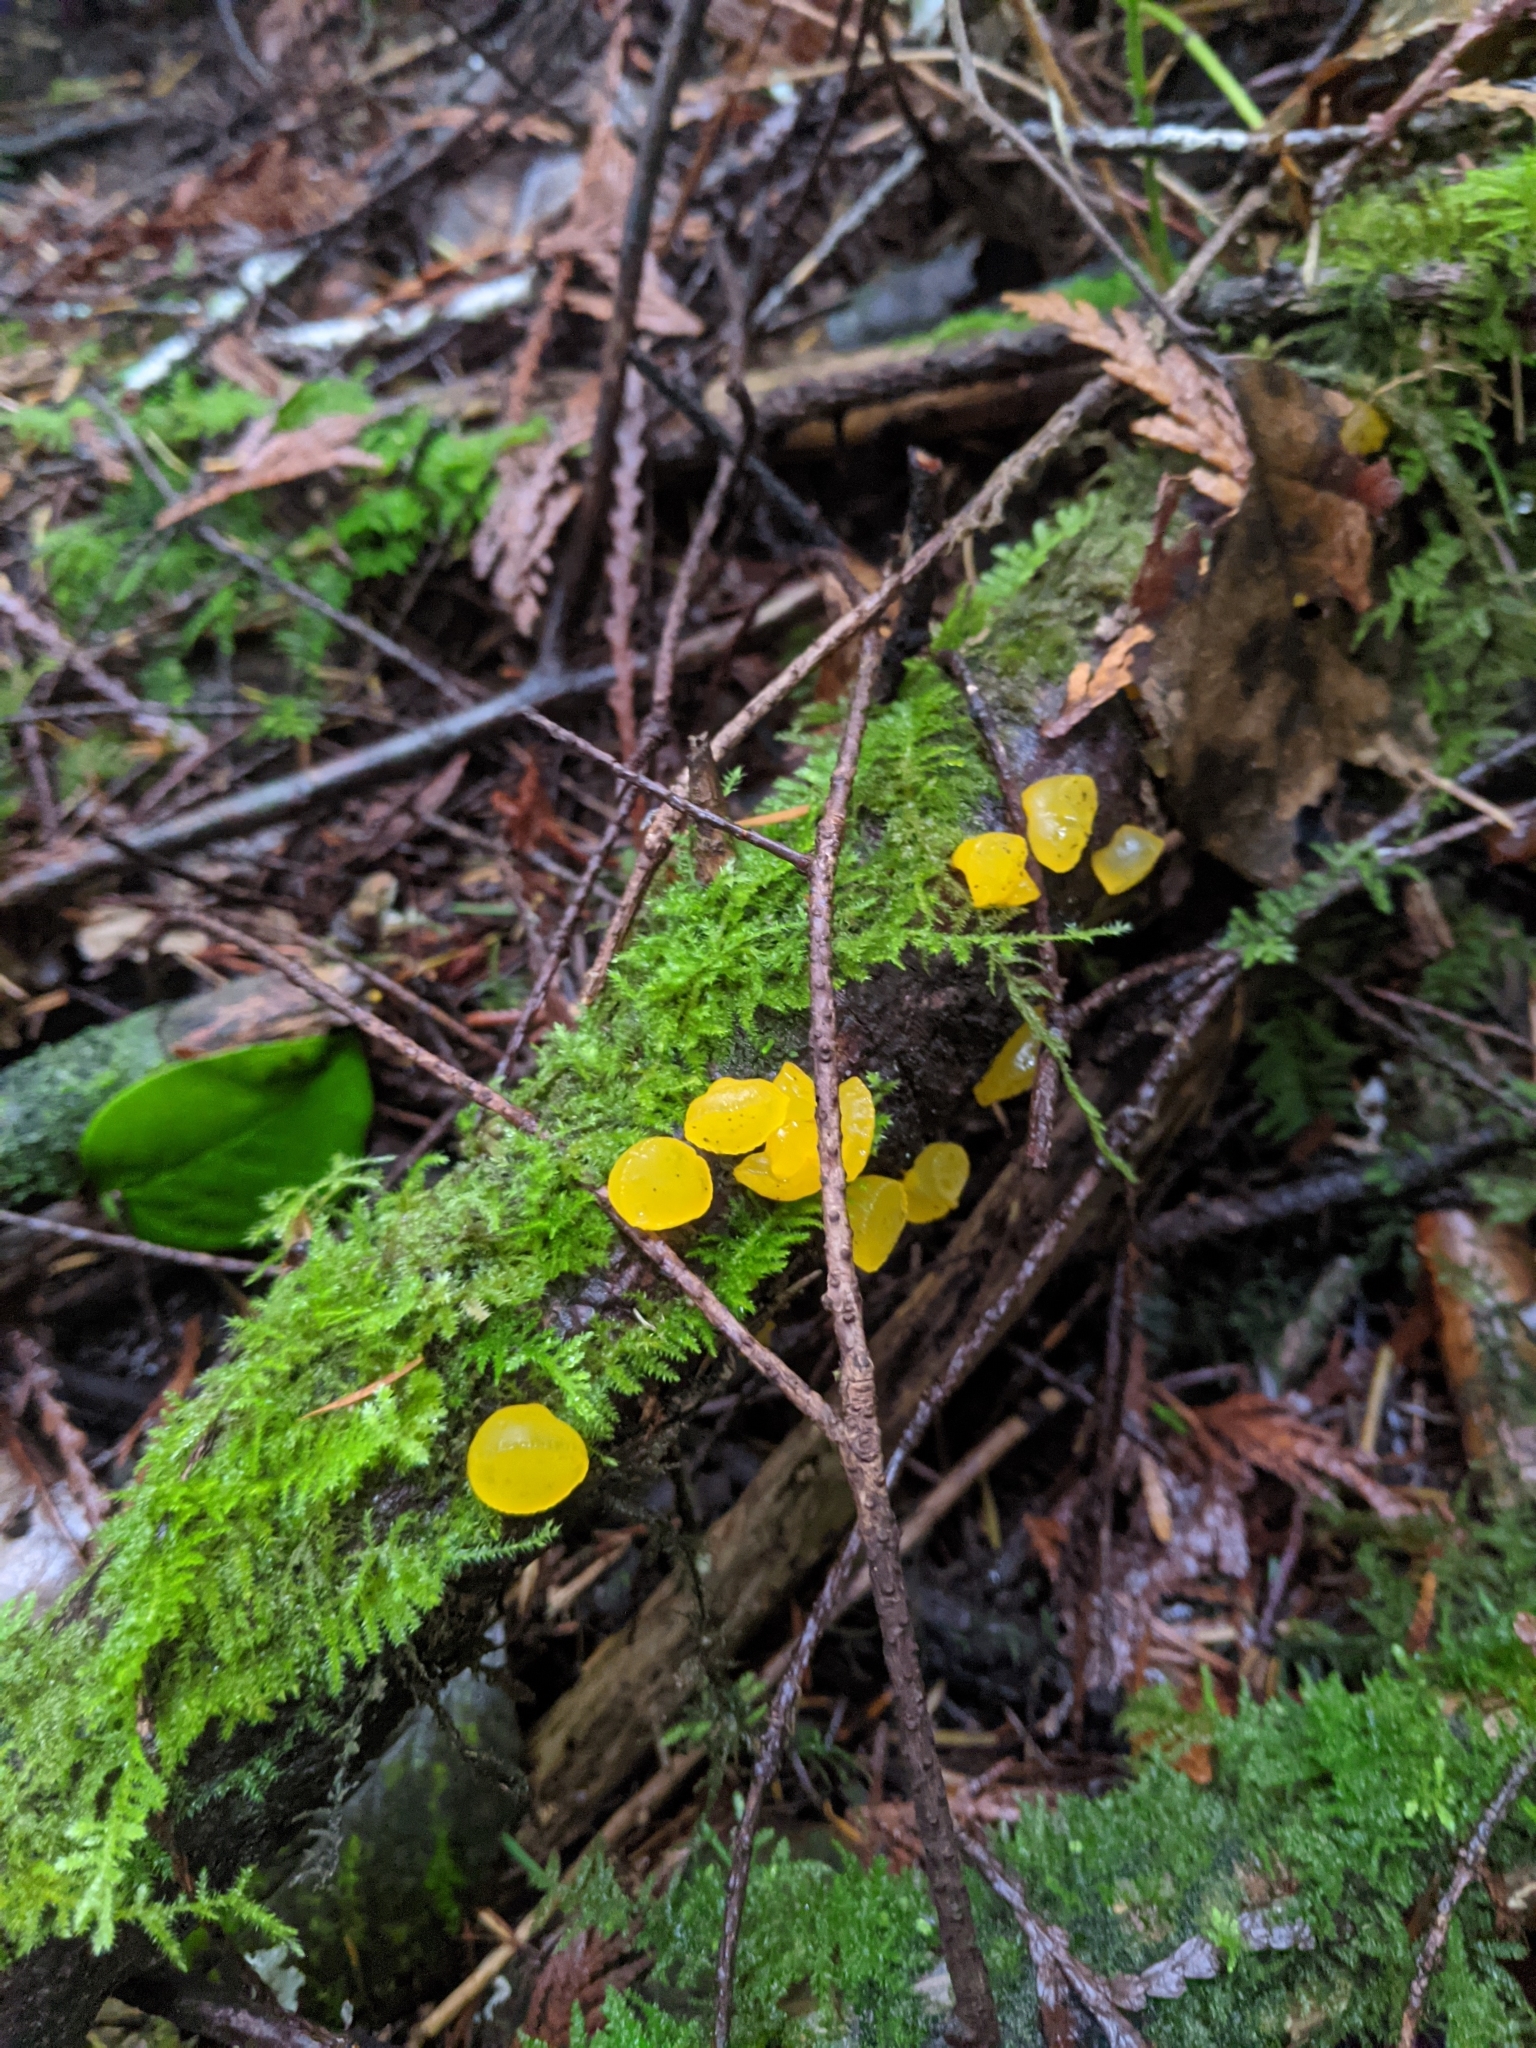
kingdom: Fungi
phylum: Basidiomycota
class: Dacrymycetes
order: Dacrymycetales
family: Dacrymycetaceae
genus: Guepiniopsis
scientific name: Guepiniopsis alpina
